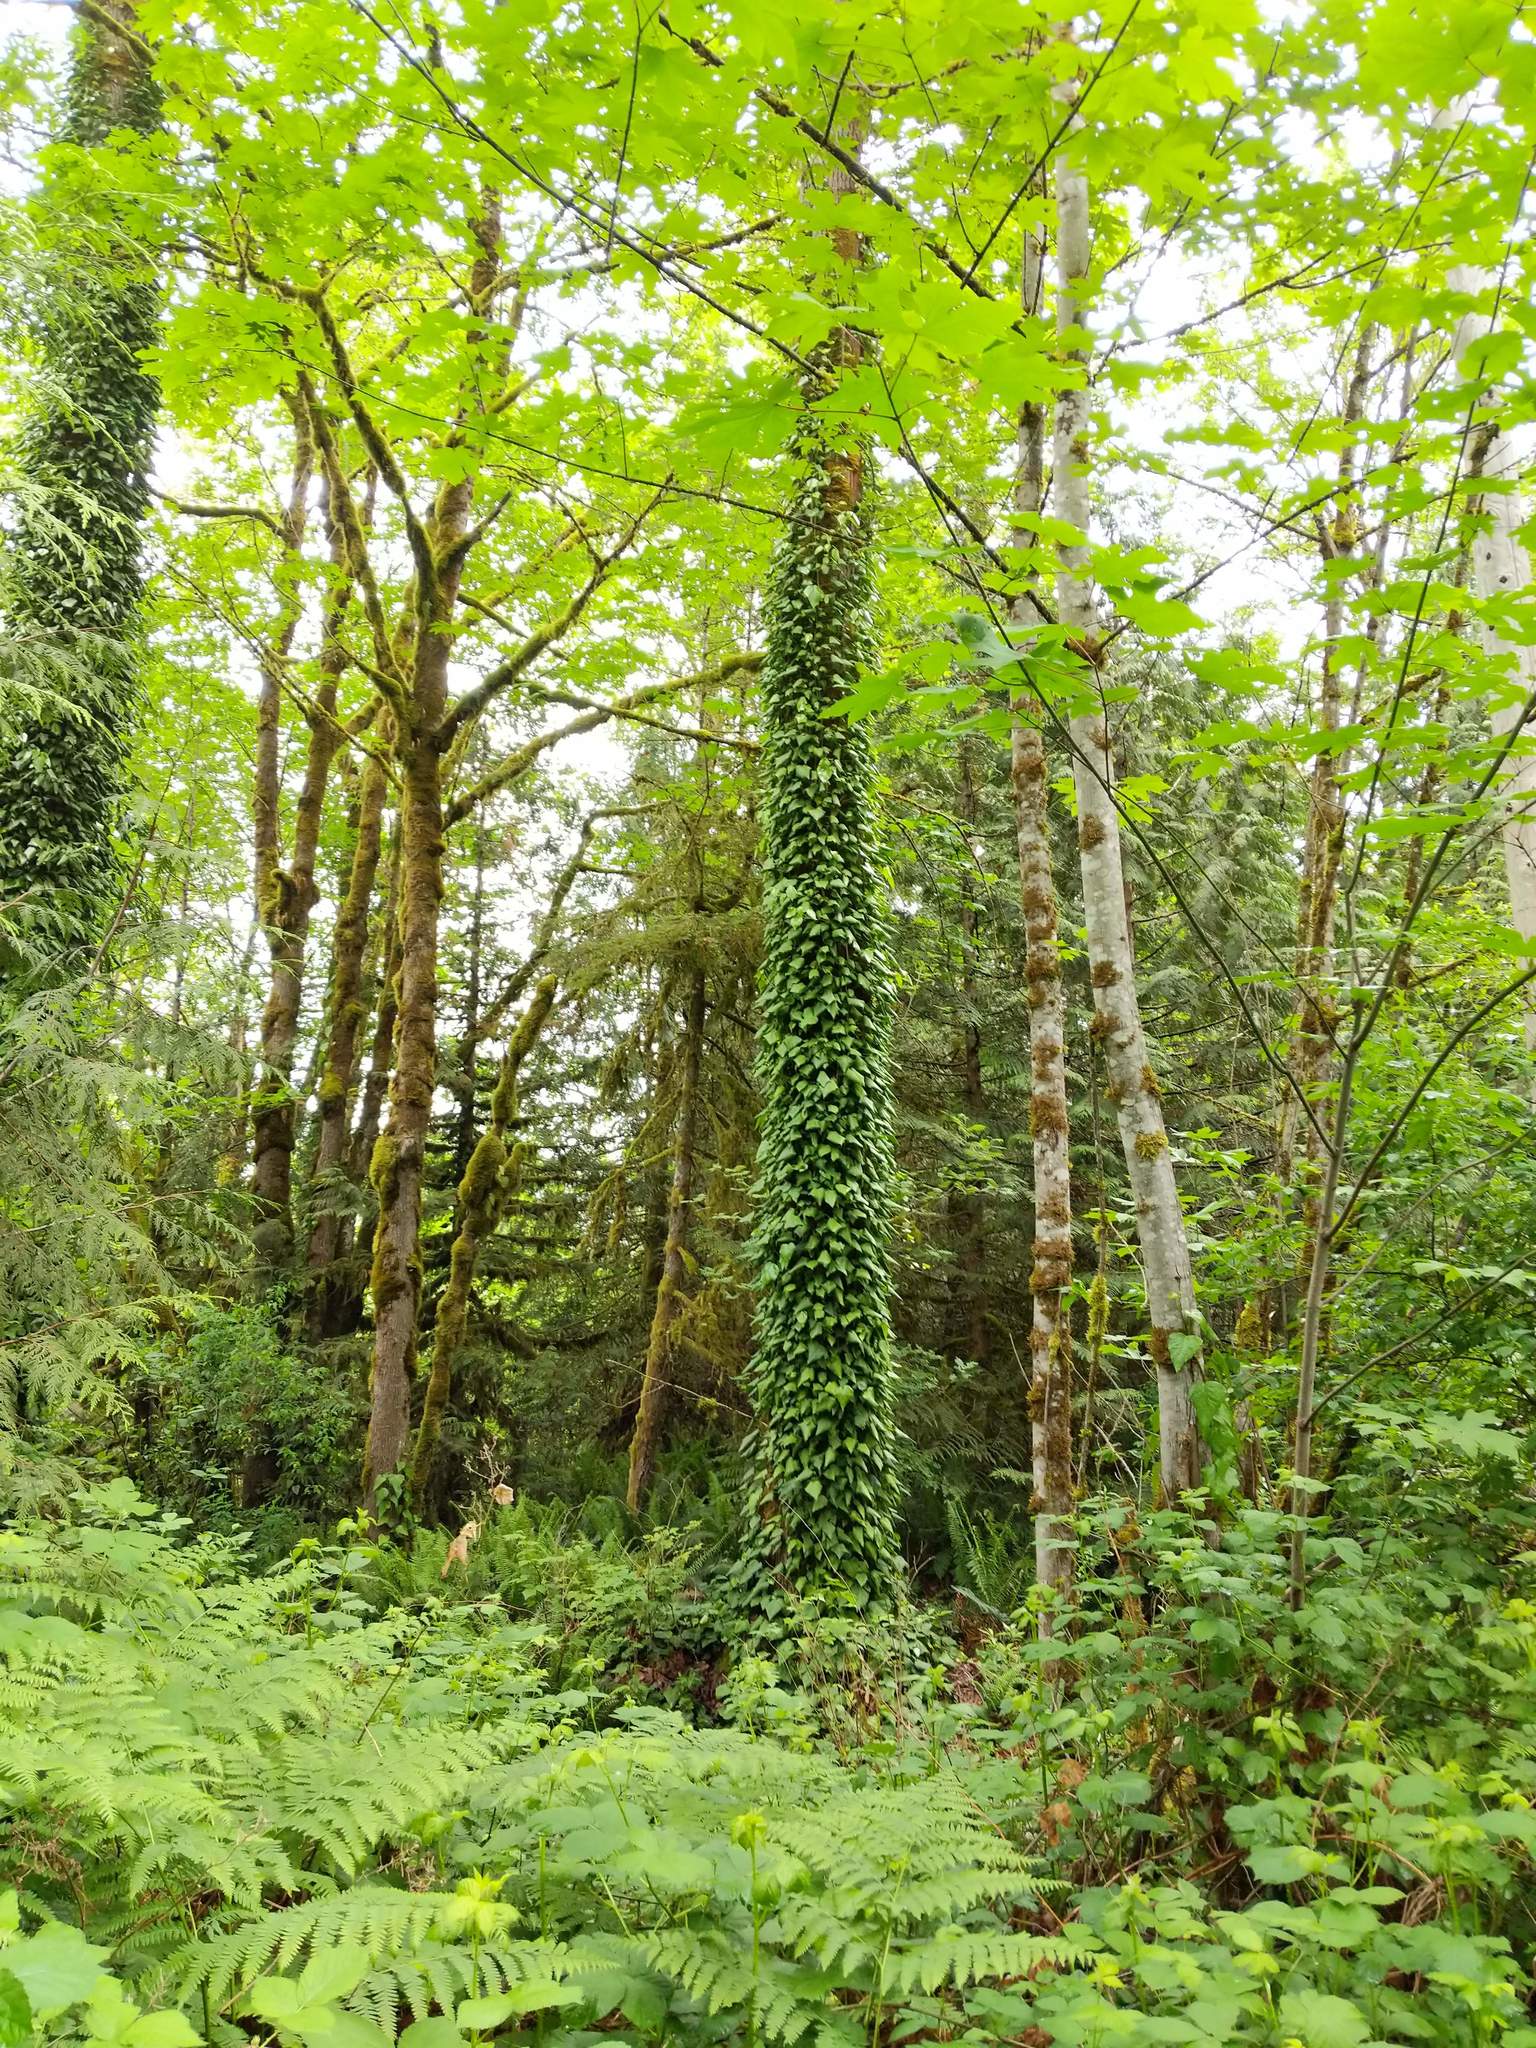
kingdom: Plantae
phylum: Tracheophyta
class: Magnoliopsida
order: Apiales
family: Araliaceae
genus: Hedera
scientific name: Hedera colchica
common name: Persian ivy
